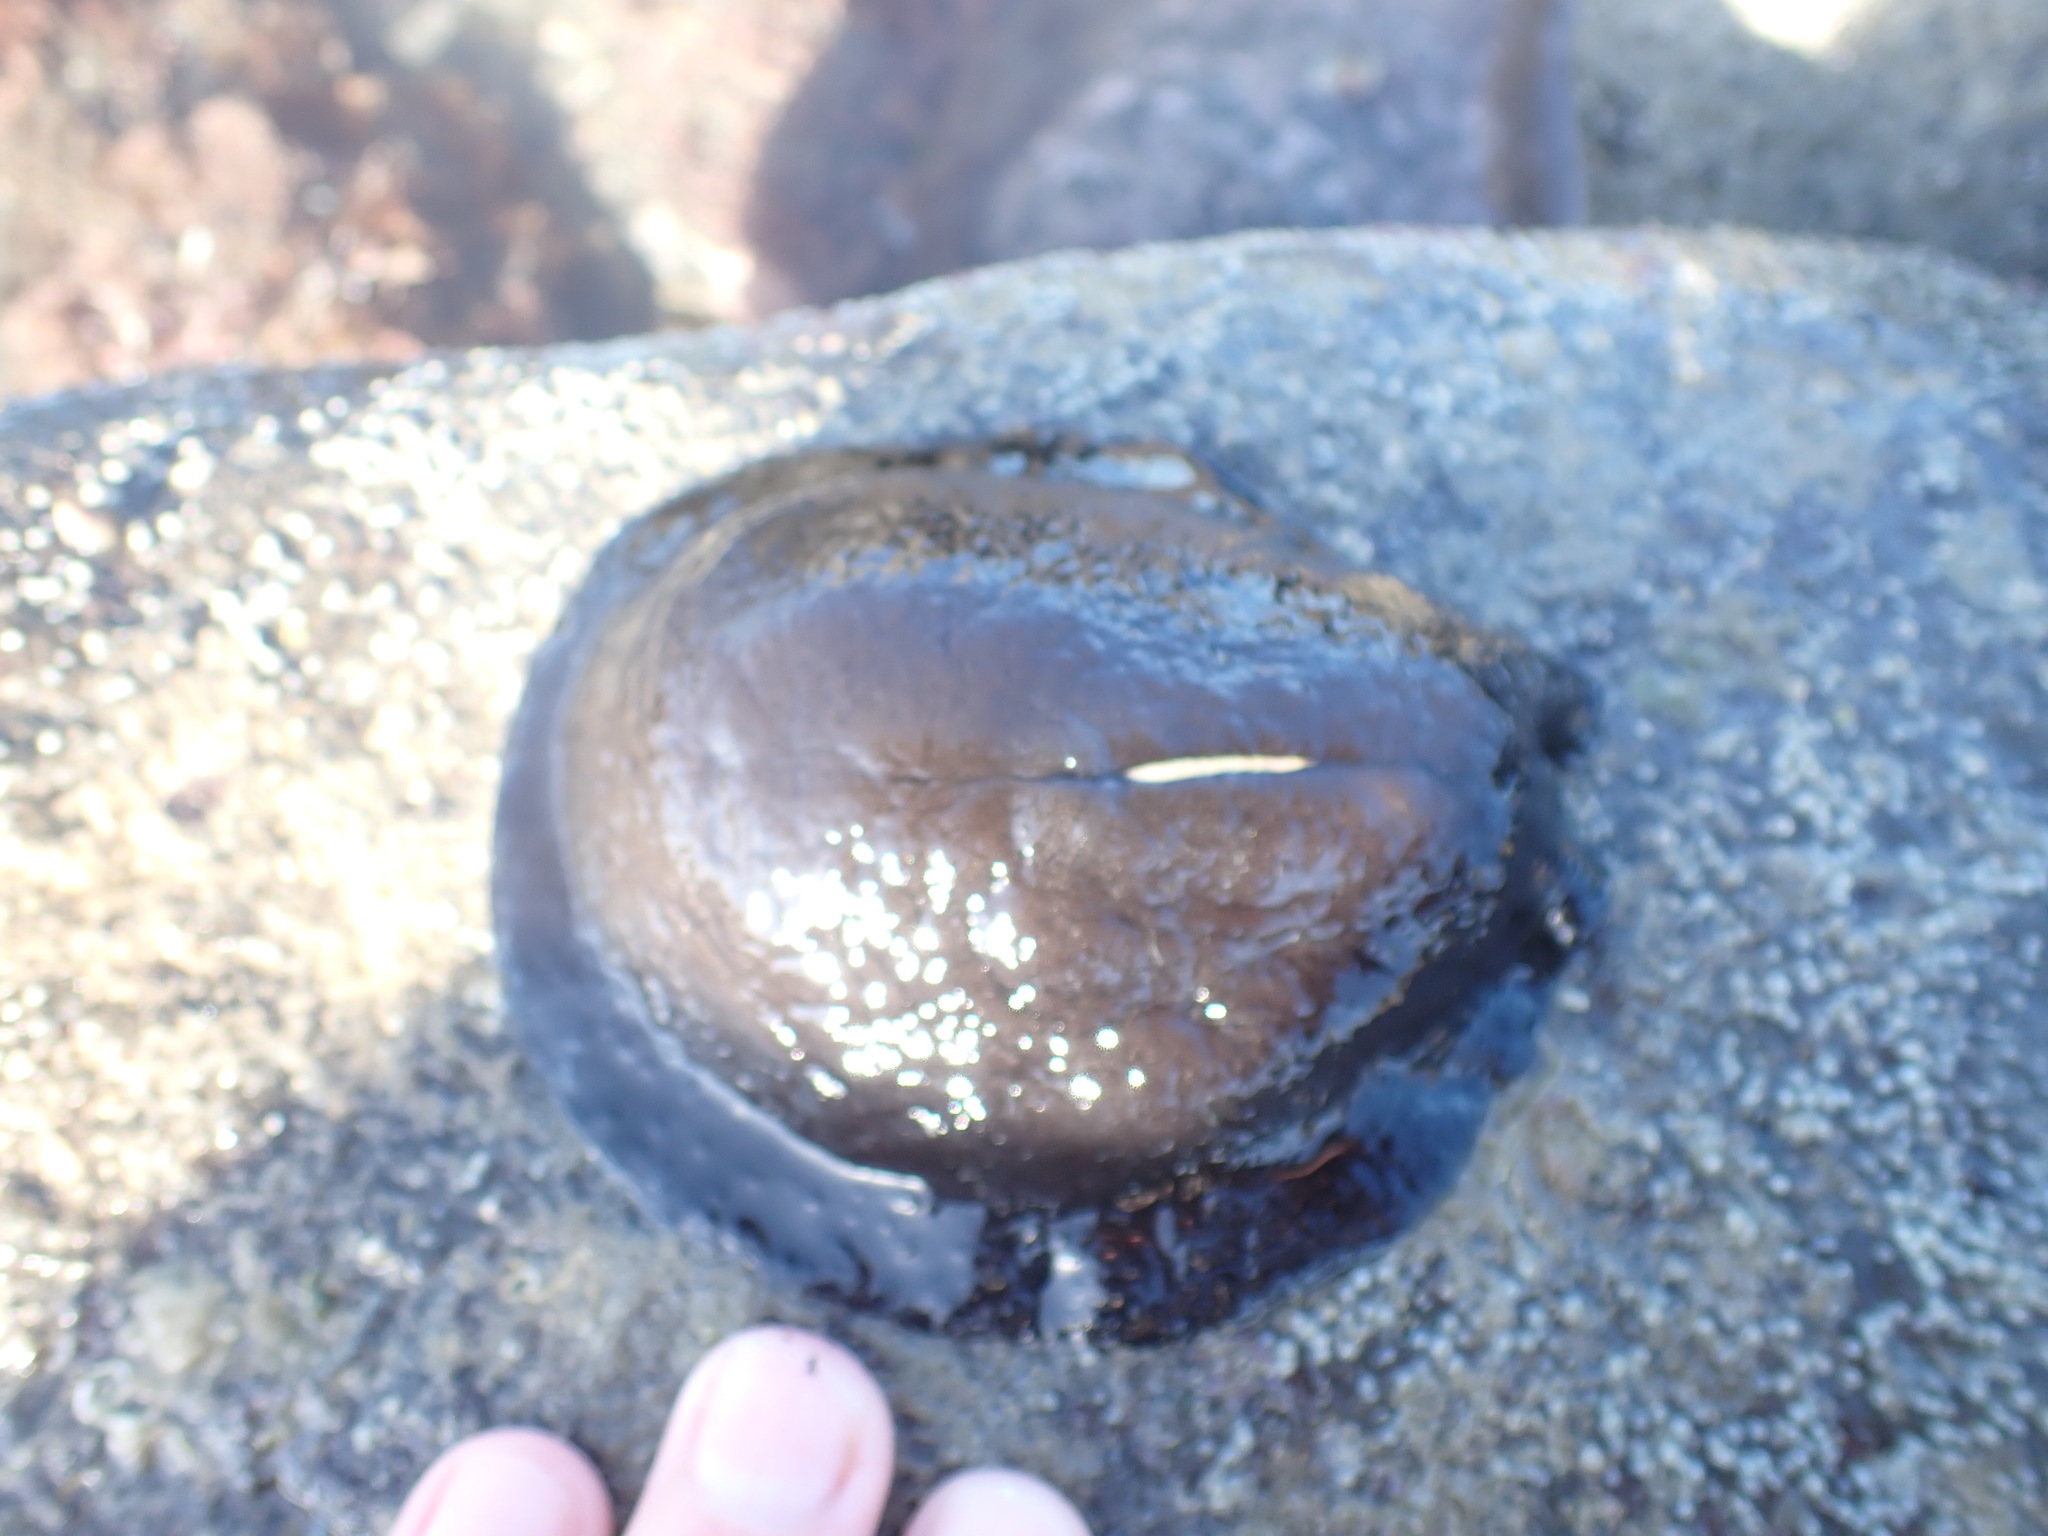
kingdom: Animalia
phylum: Mollusca
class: Gastropoda
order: Lepetellida
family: Fissurellidae
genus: Scutus
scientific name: Scutus breviculus
